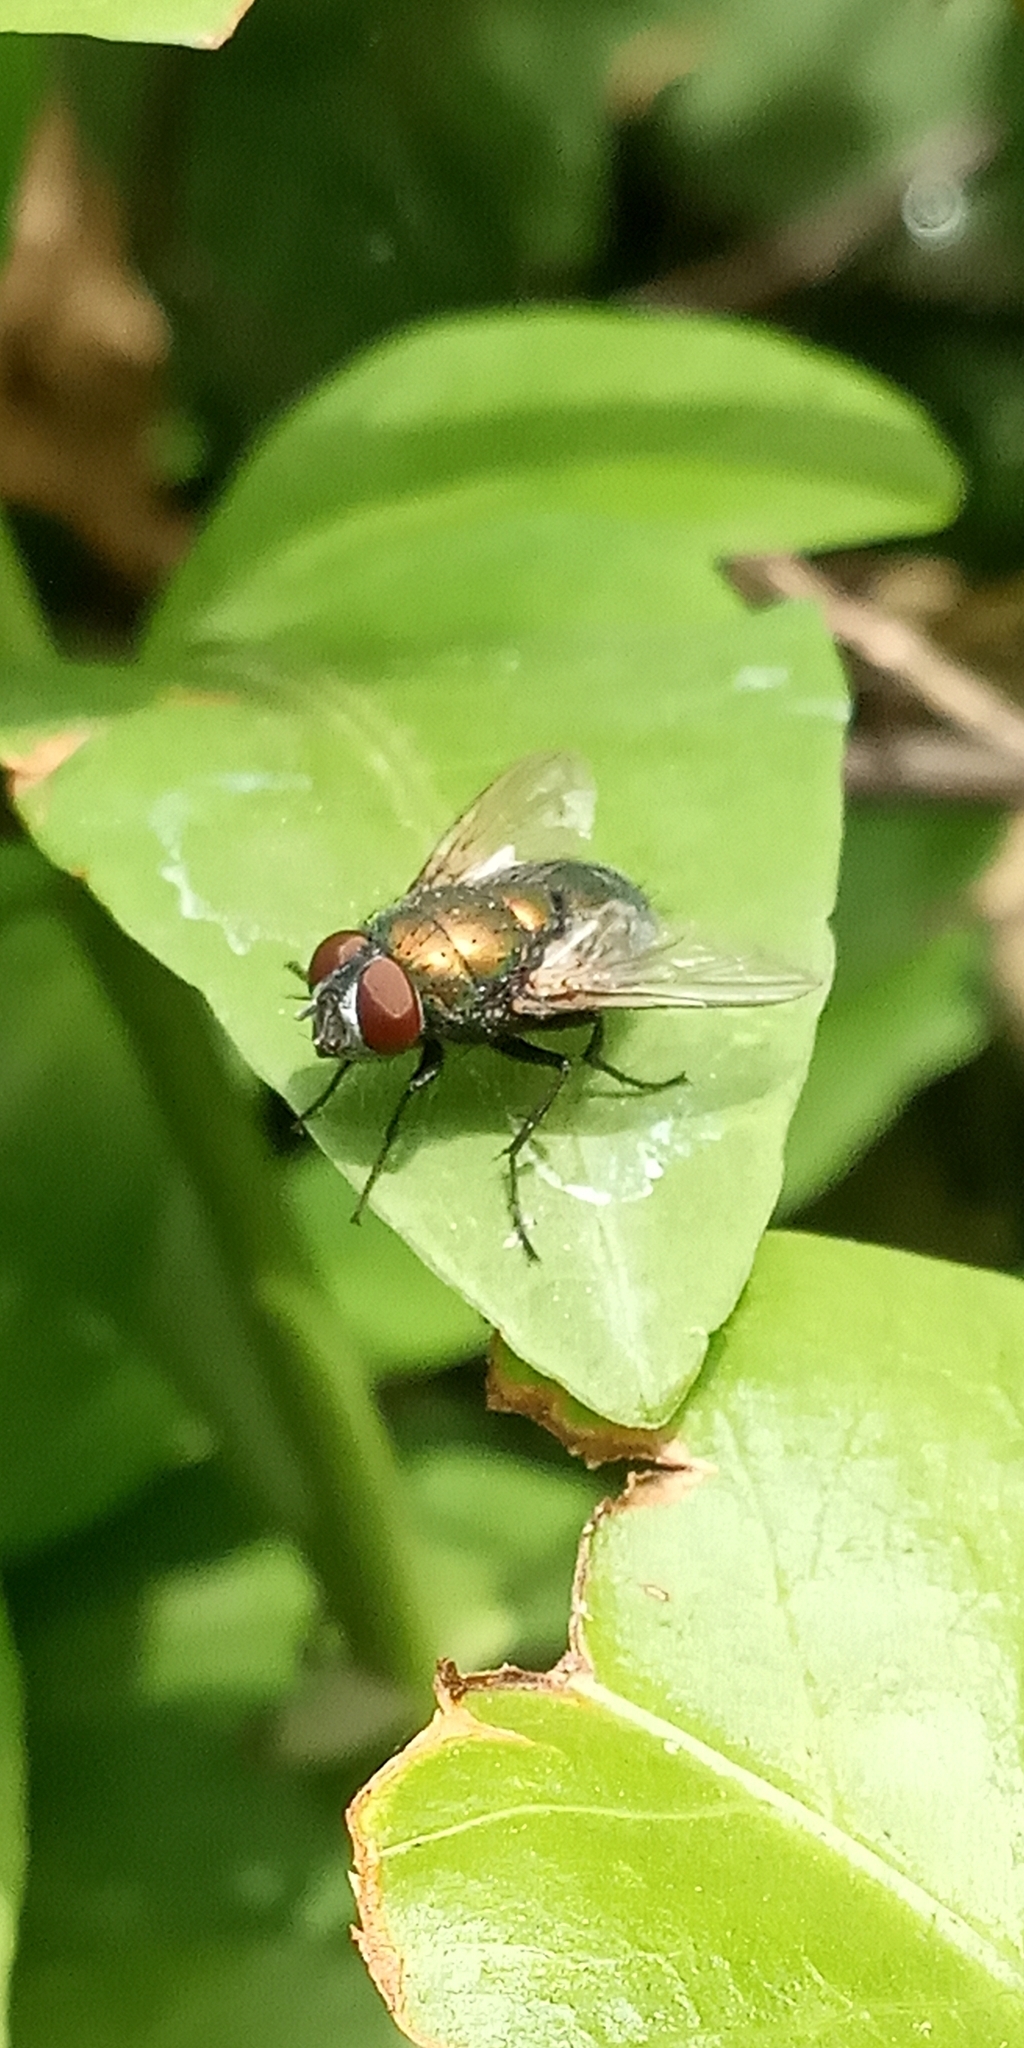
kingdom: Animalia
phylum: Arthropoda
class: Insecta
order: Diptera
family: Calliphoridae
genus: Lucilia
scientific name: Lucilia sericata
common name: Blow fly
